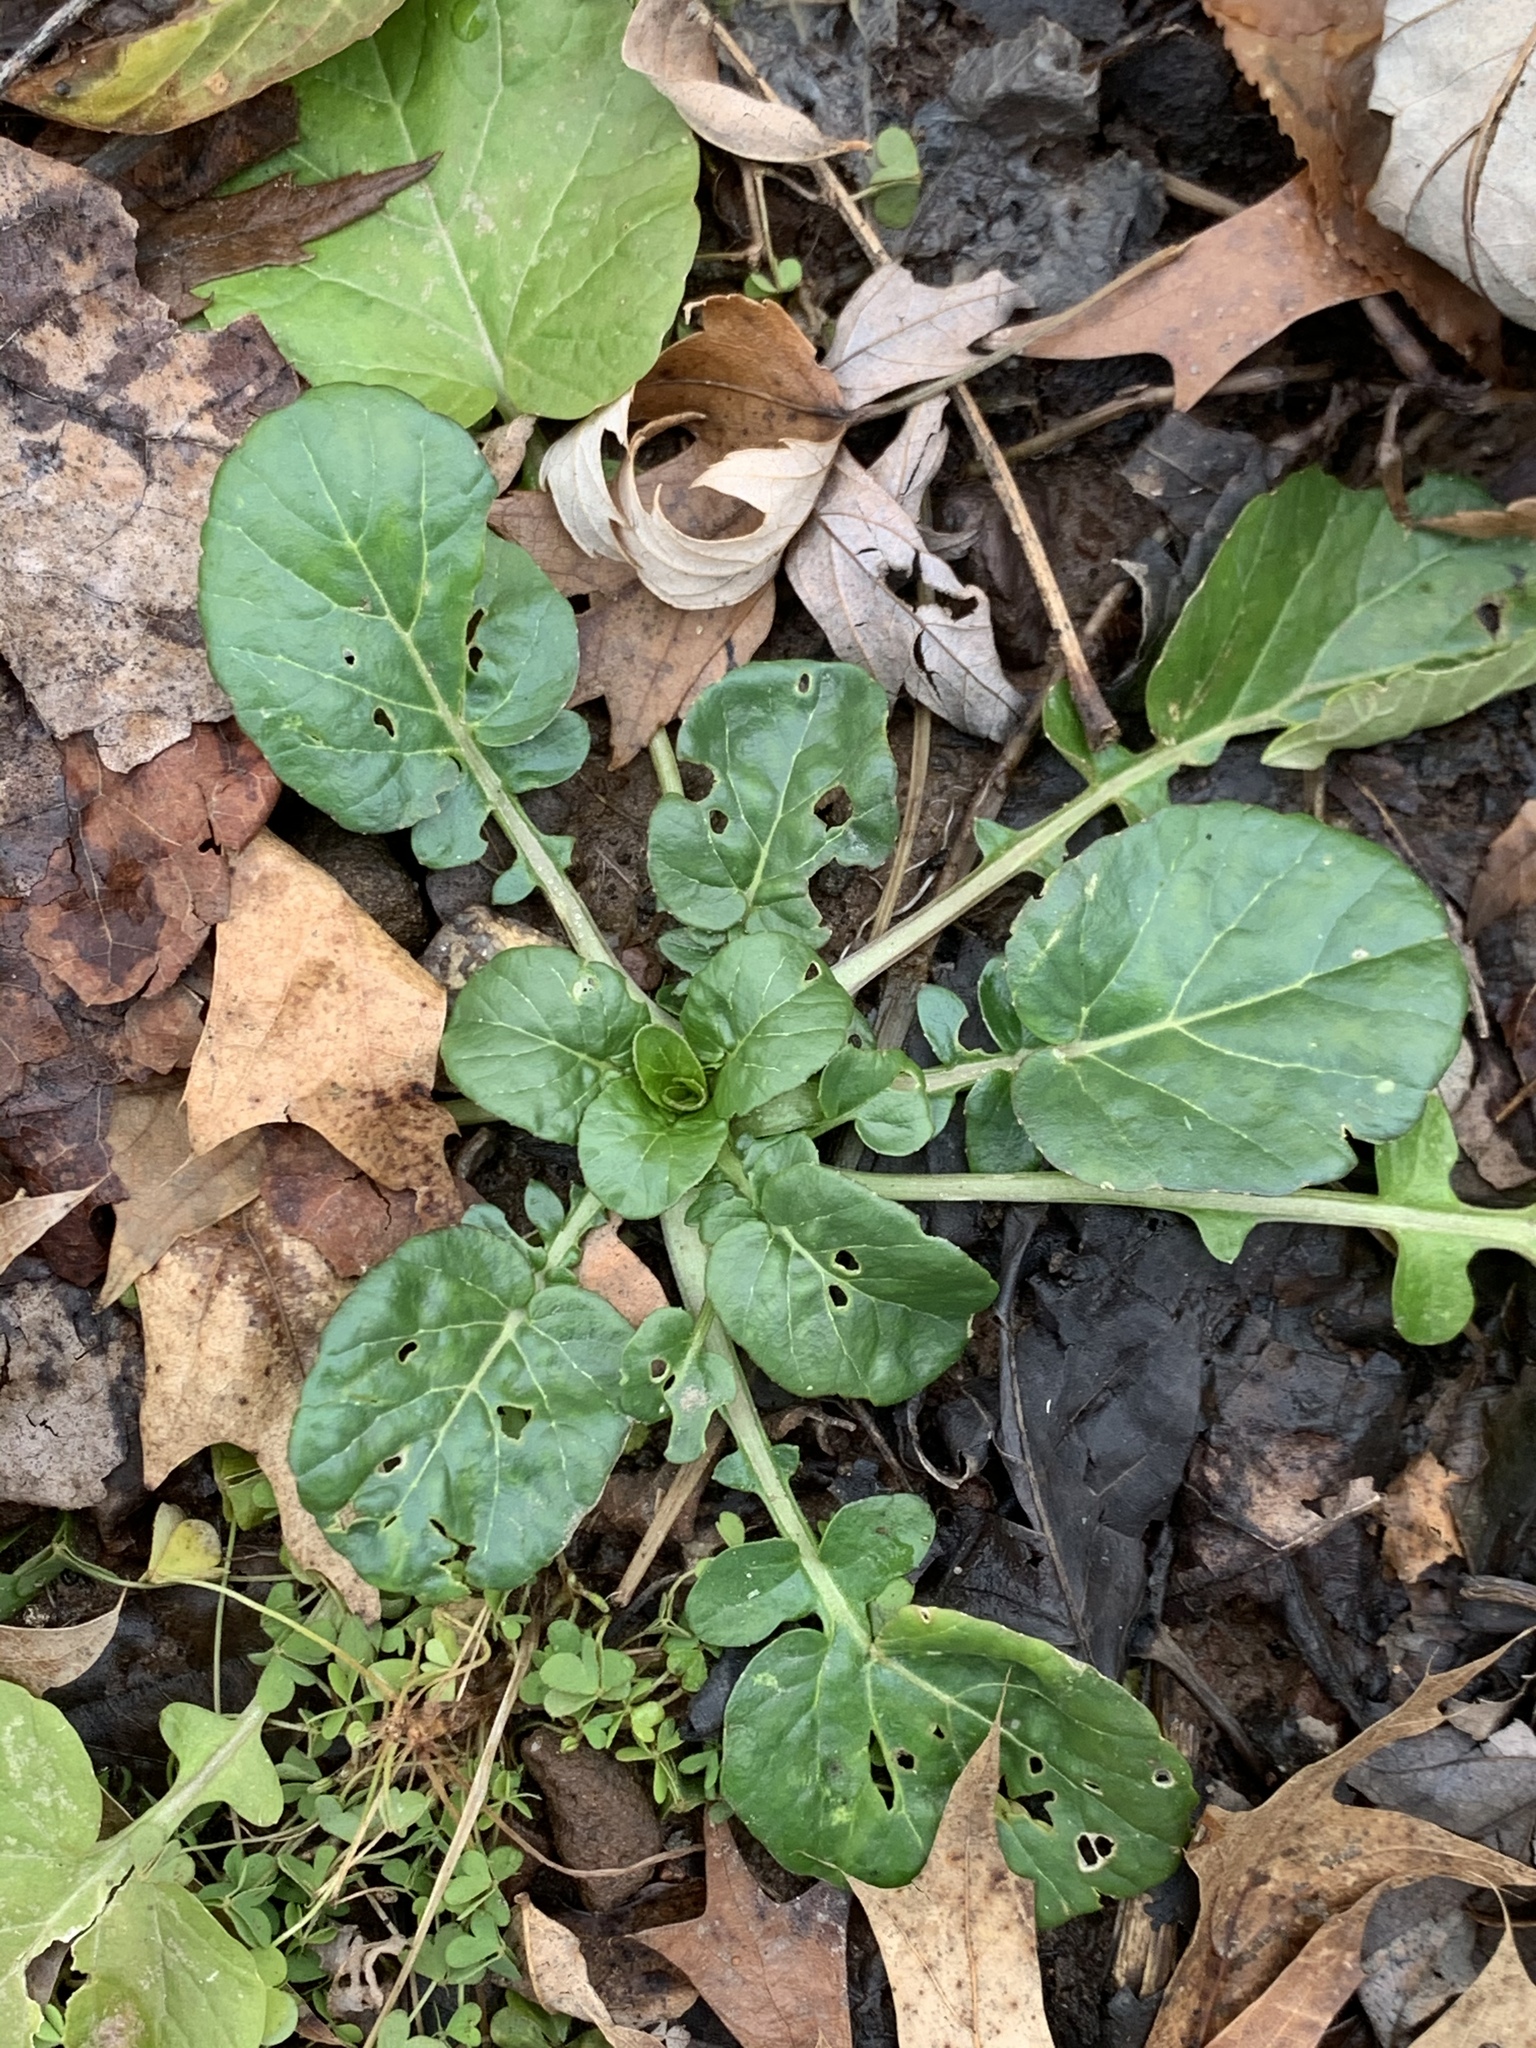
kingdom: Plantae
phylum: Tracheophyta
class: Magnoliopsida
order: Brassicales
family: Brassicaceae
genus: Barbarea
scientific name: Barbarea vulgaris
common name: Cressy-greens
